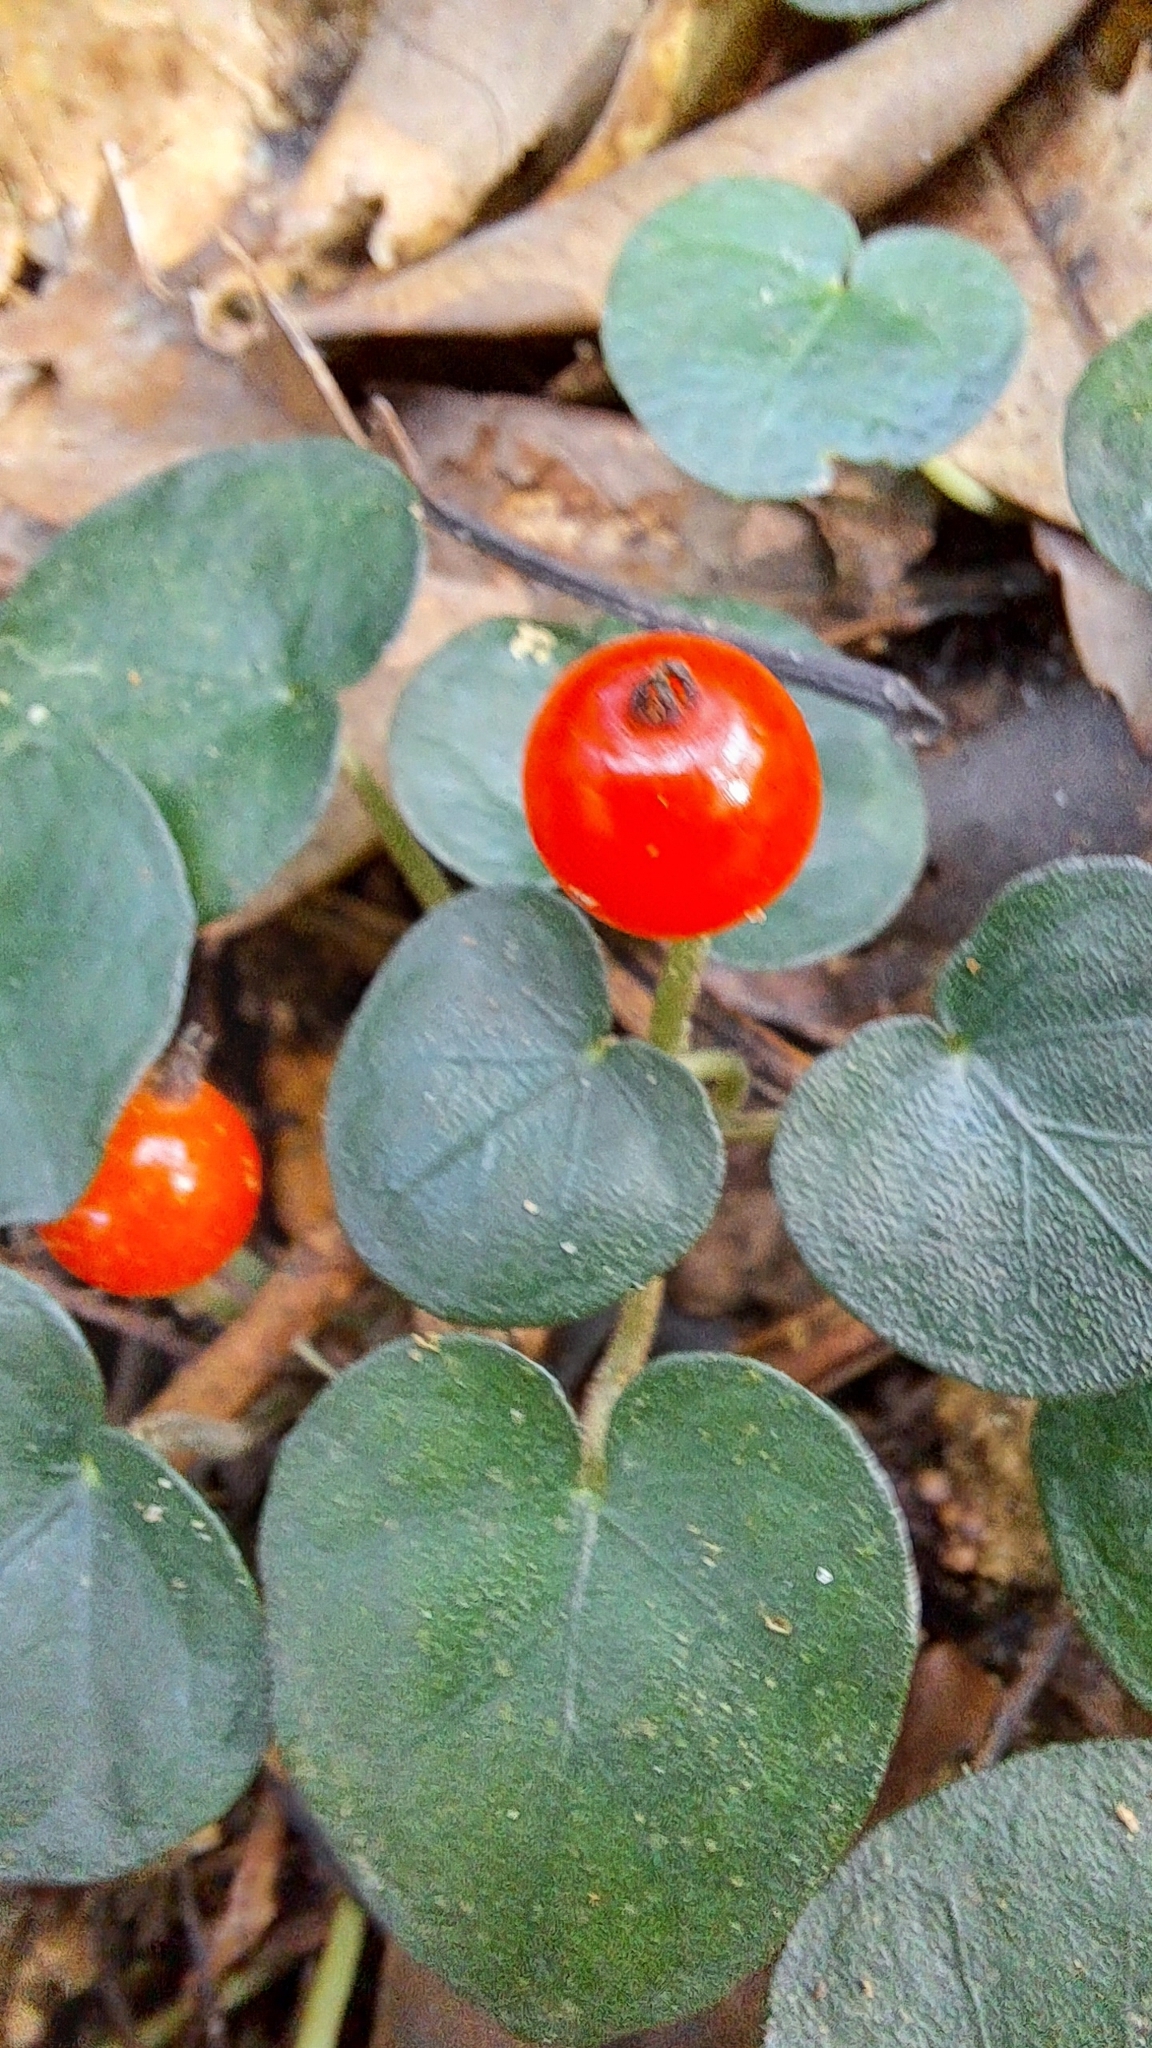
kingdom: Plantae
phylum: Tracheophyta
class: Magnoliopsida
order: Gentianales
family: Rubiaceae
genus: Geophila
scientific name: Geophila herbacea
